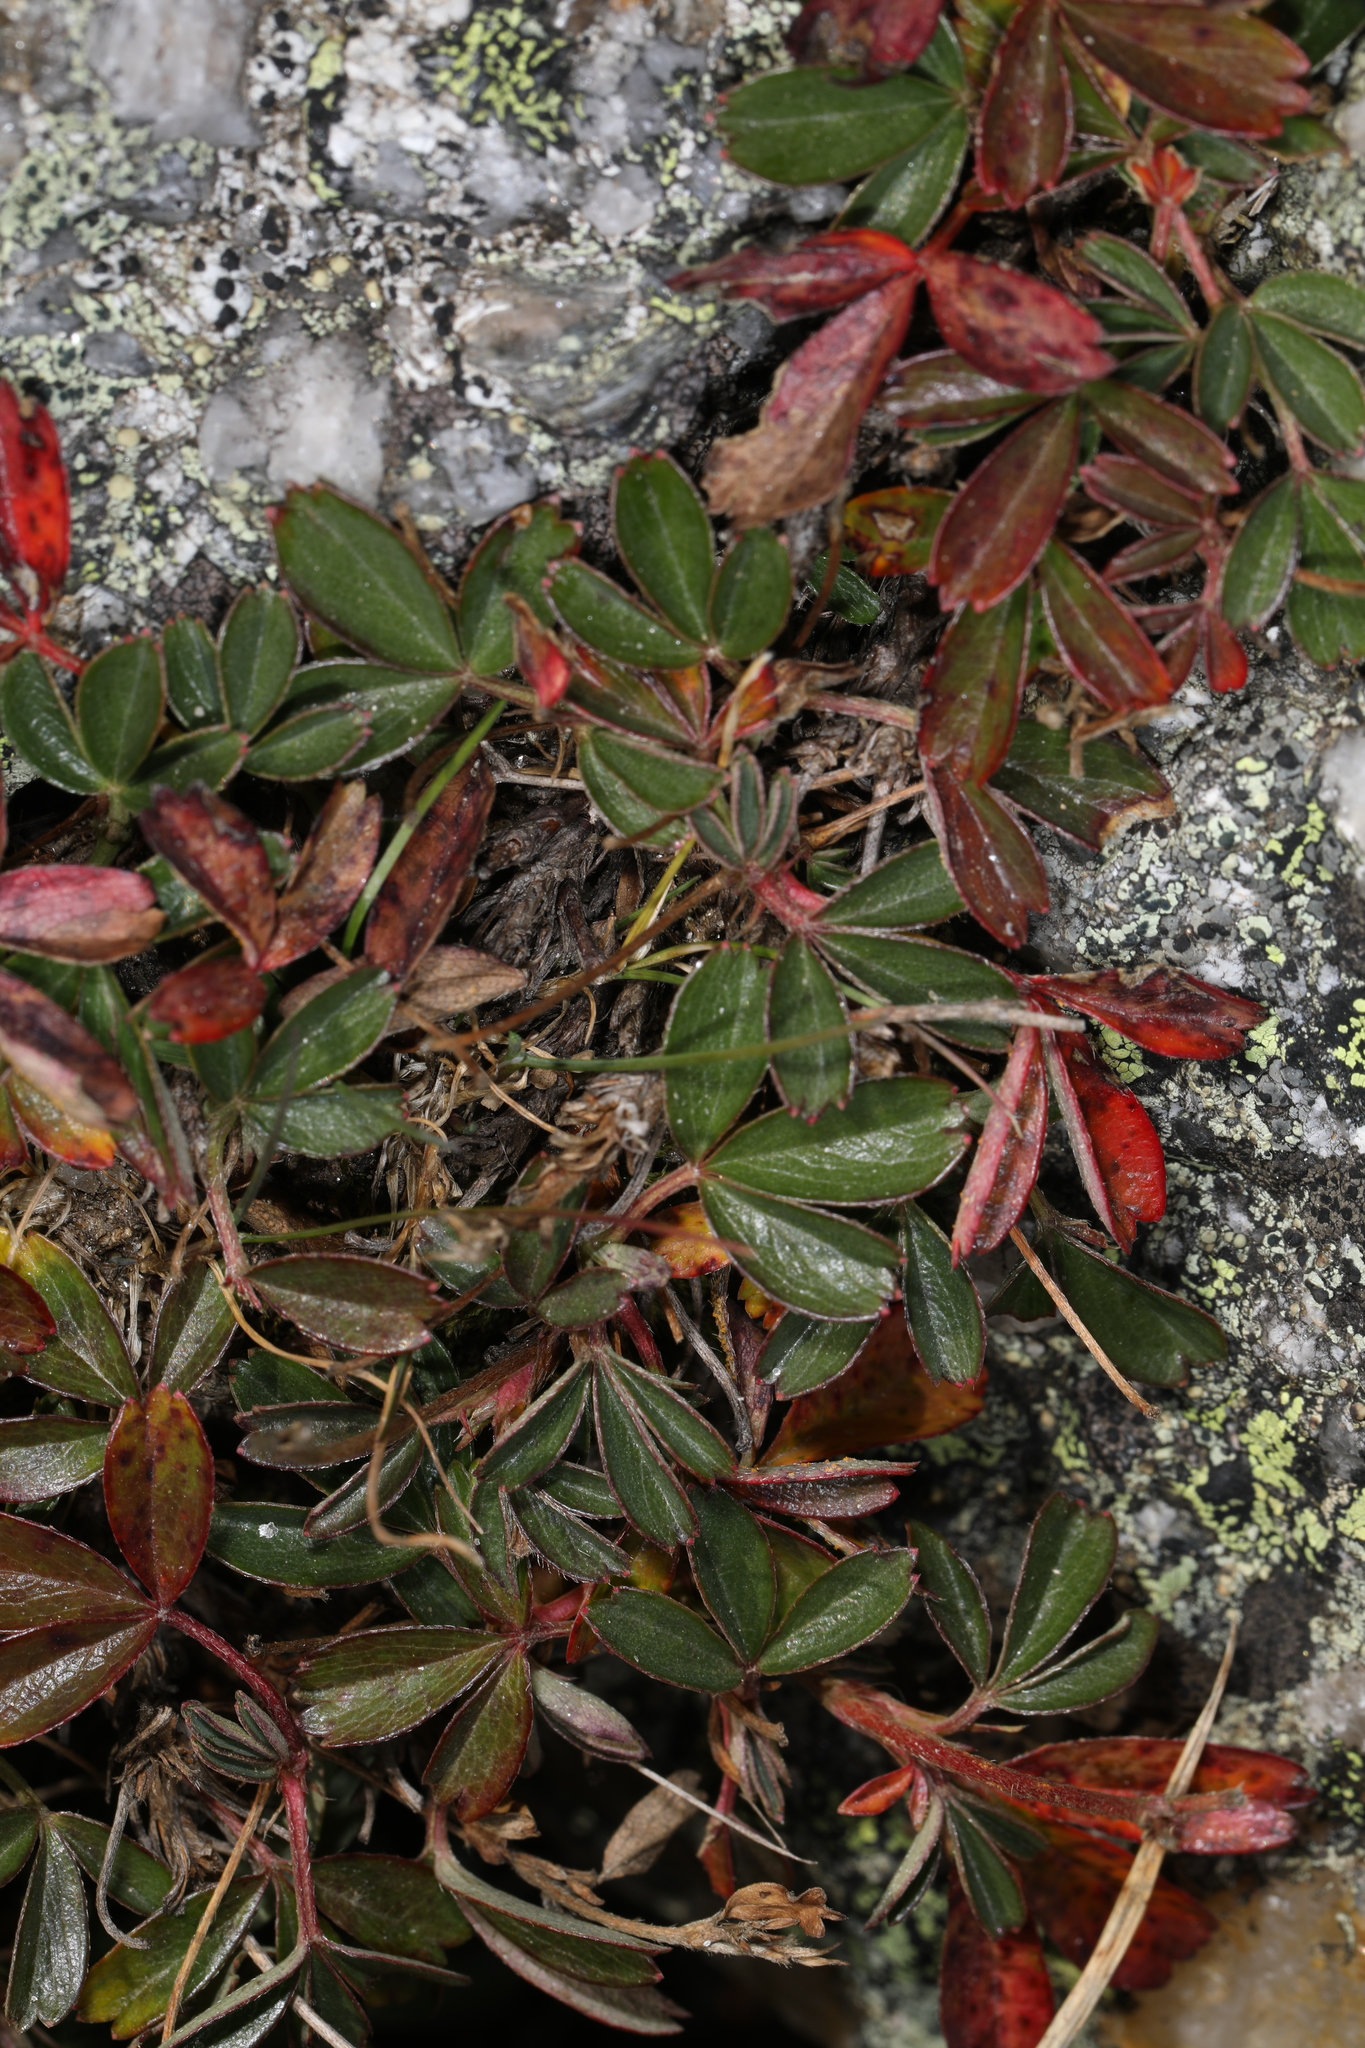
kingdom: Plantae
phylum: Tracheophyta
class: Magnoliopsida
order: Rosales
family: Rosaceae
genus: Sibbaldia
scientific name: Sibbaldia tridentata
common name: Three-toothed cinquefoil
